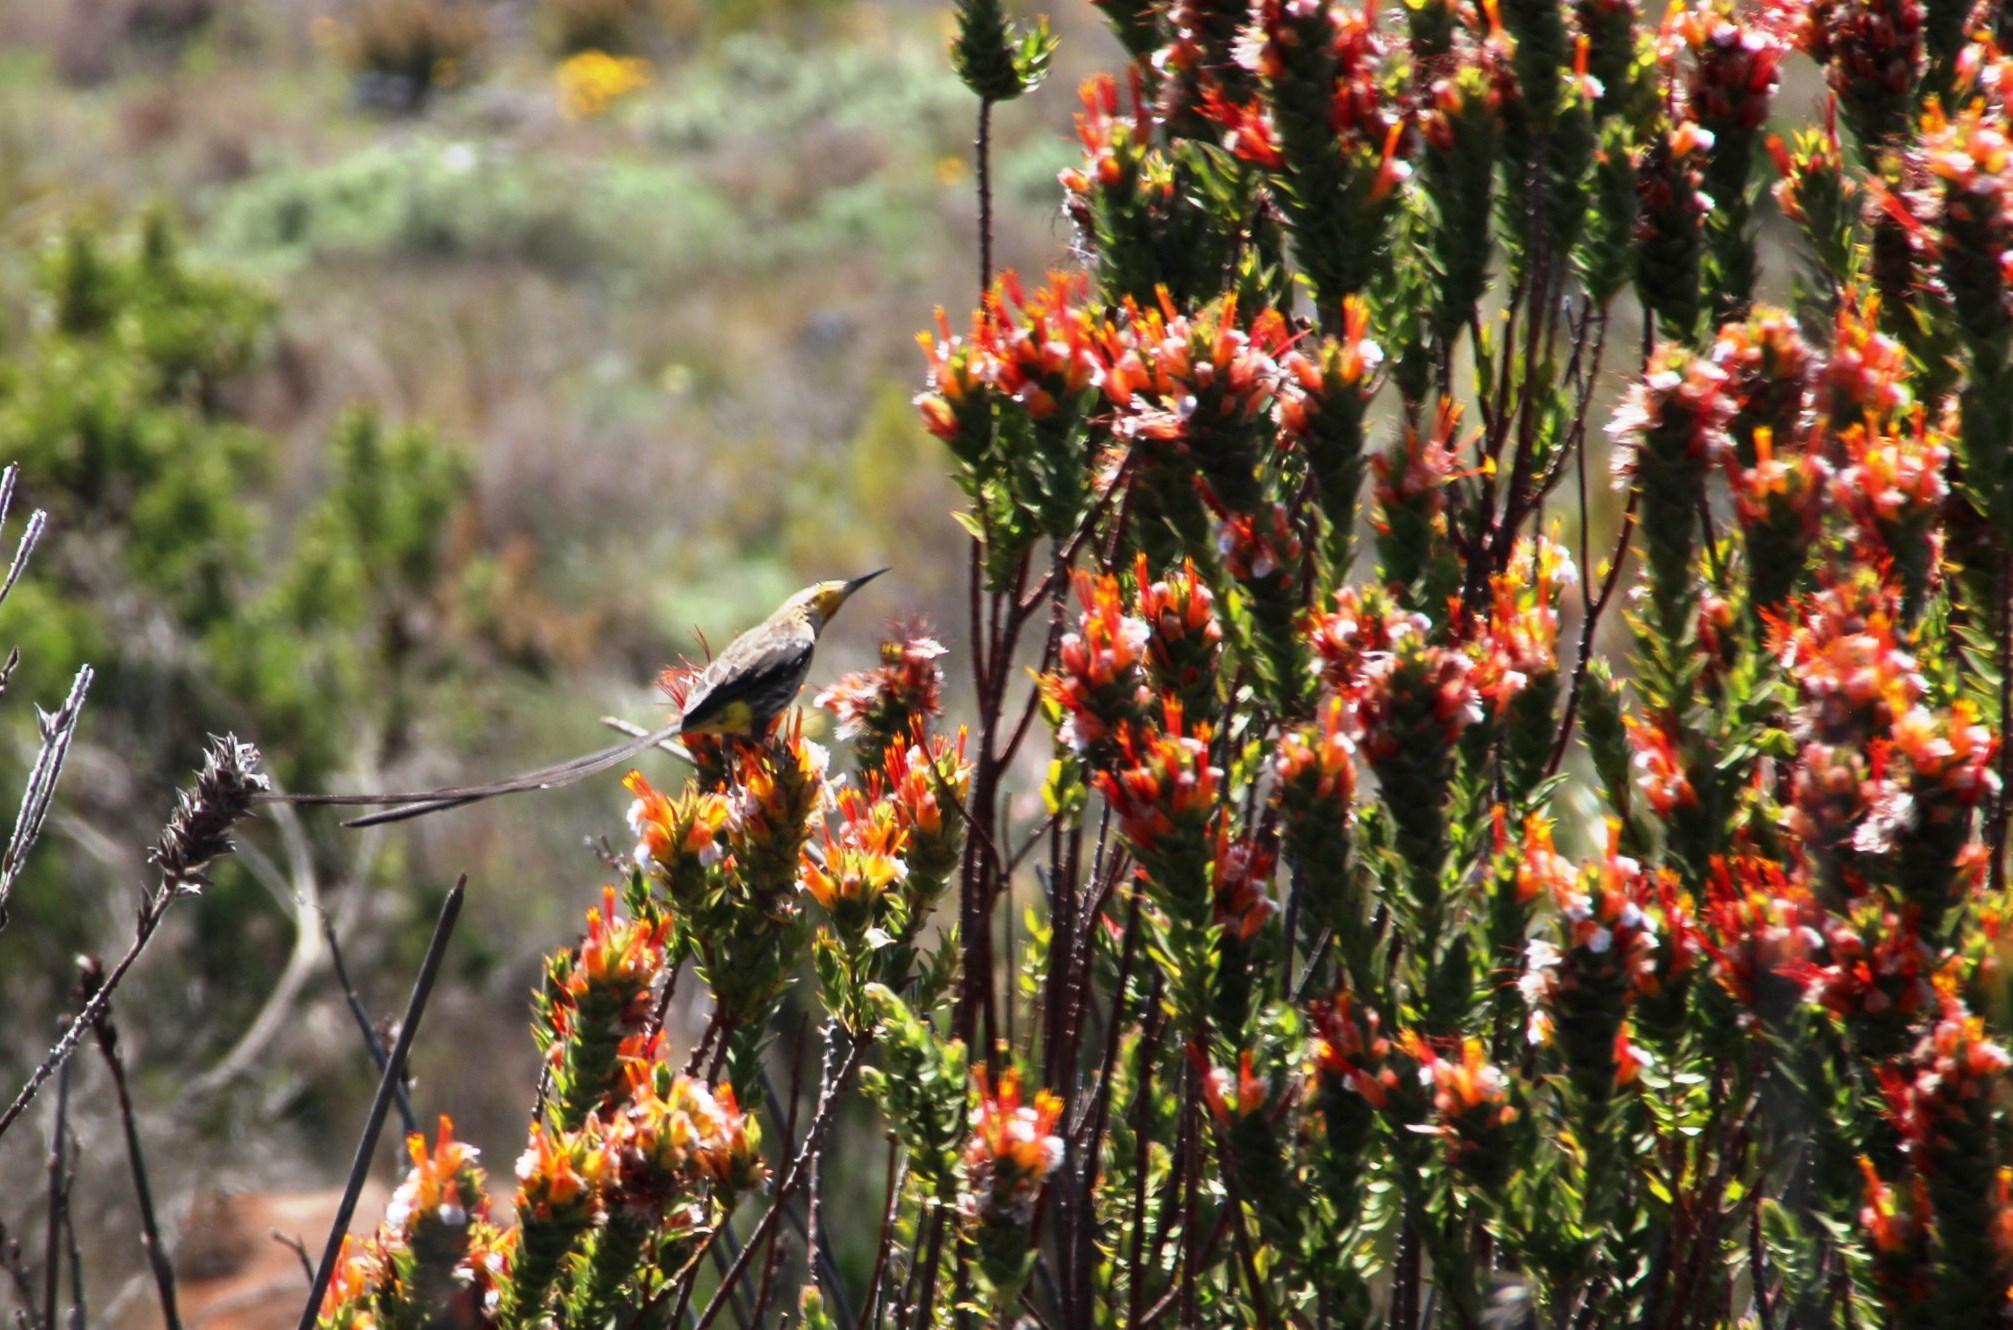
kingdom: Animalia
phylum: Chordata
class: Aves
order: Passeriformes
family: Promeropidae
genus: Promerops
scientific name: Promerops cafer
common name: Cape sugarbird
